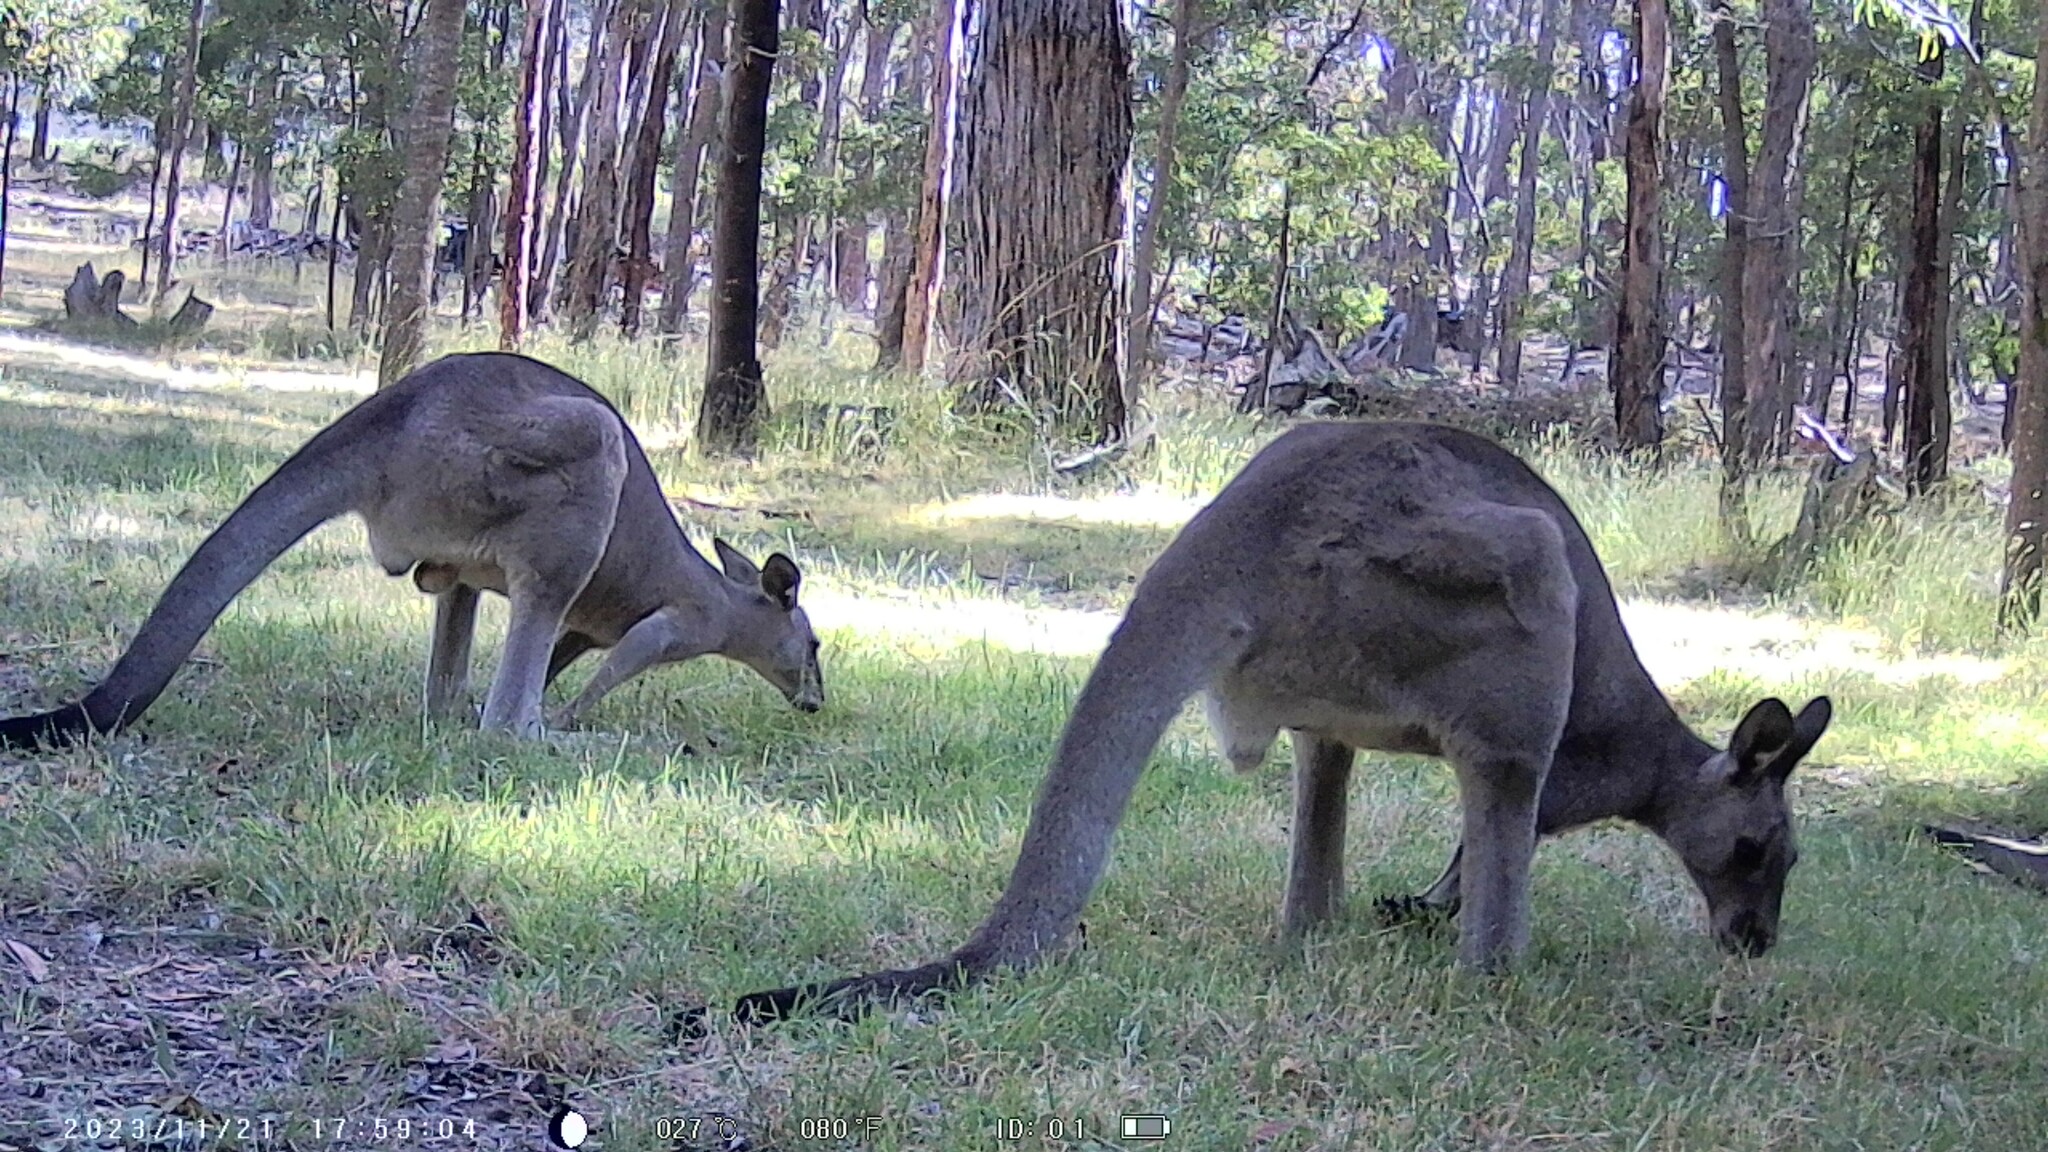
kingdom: Animalia
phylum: Chordata
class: Mammalia
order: Diprotodontia
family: Macropodidae
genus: Macropus
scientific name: Macropus giganteus
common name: Eastern grey kangaroo
